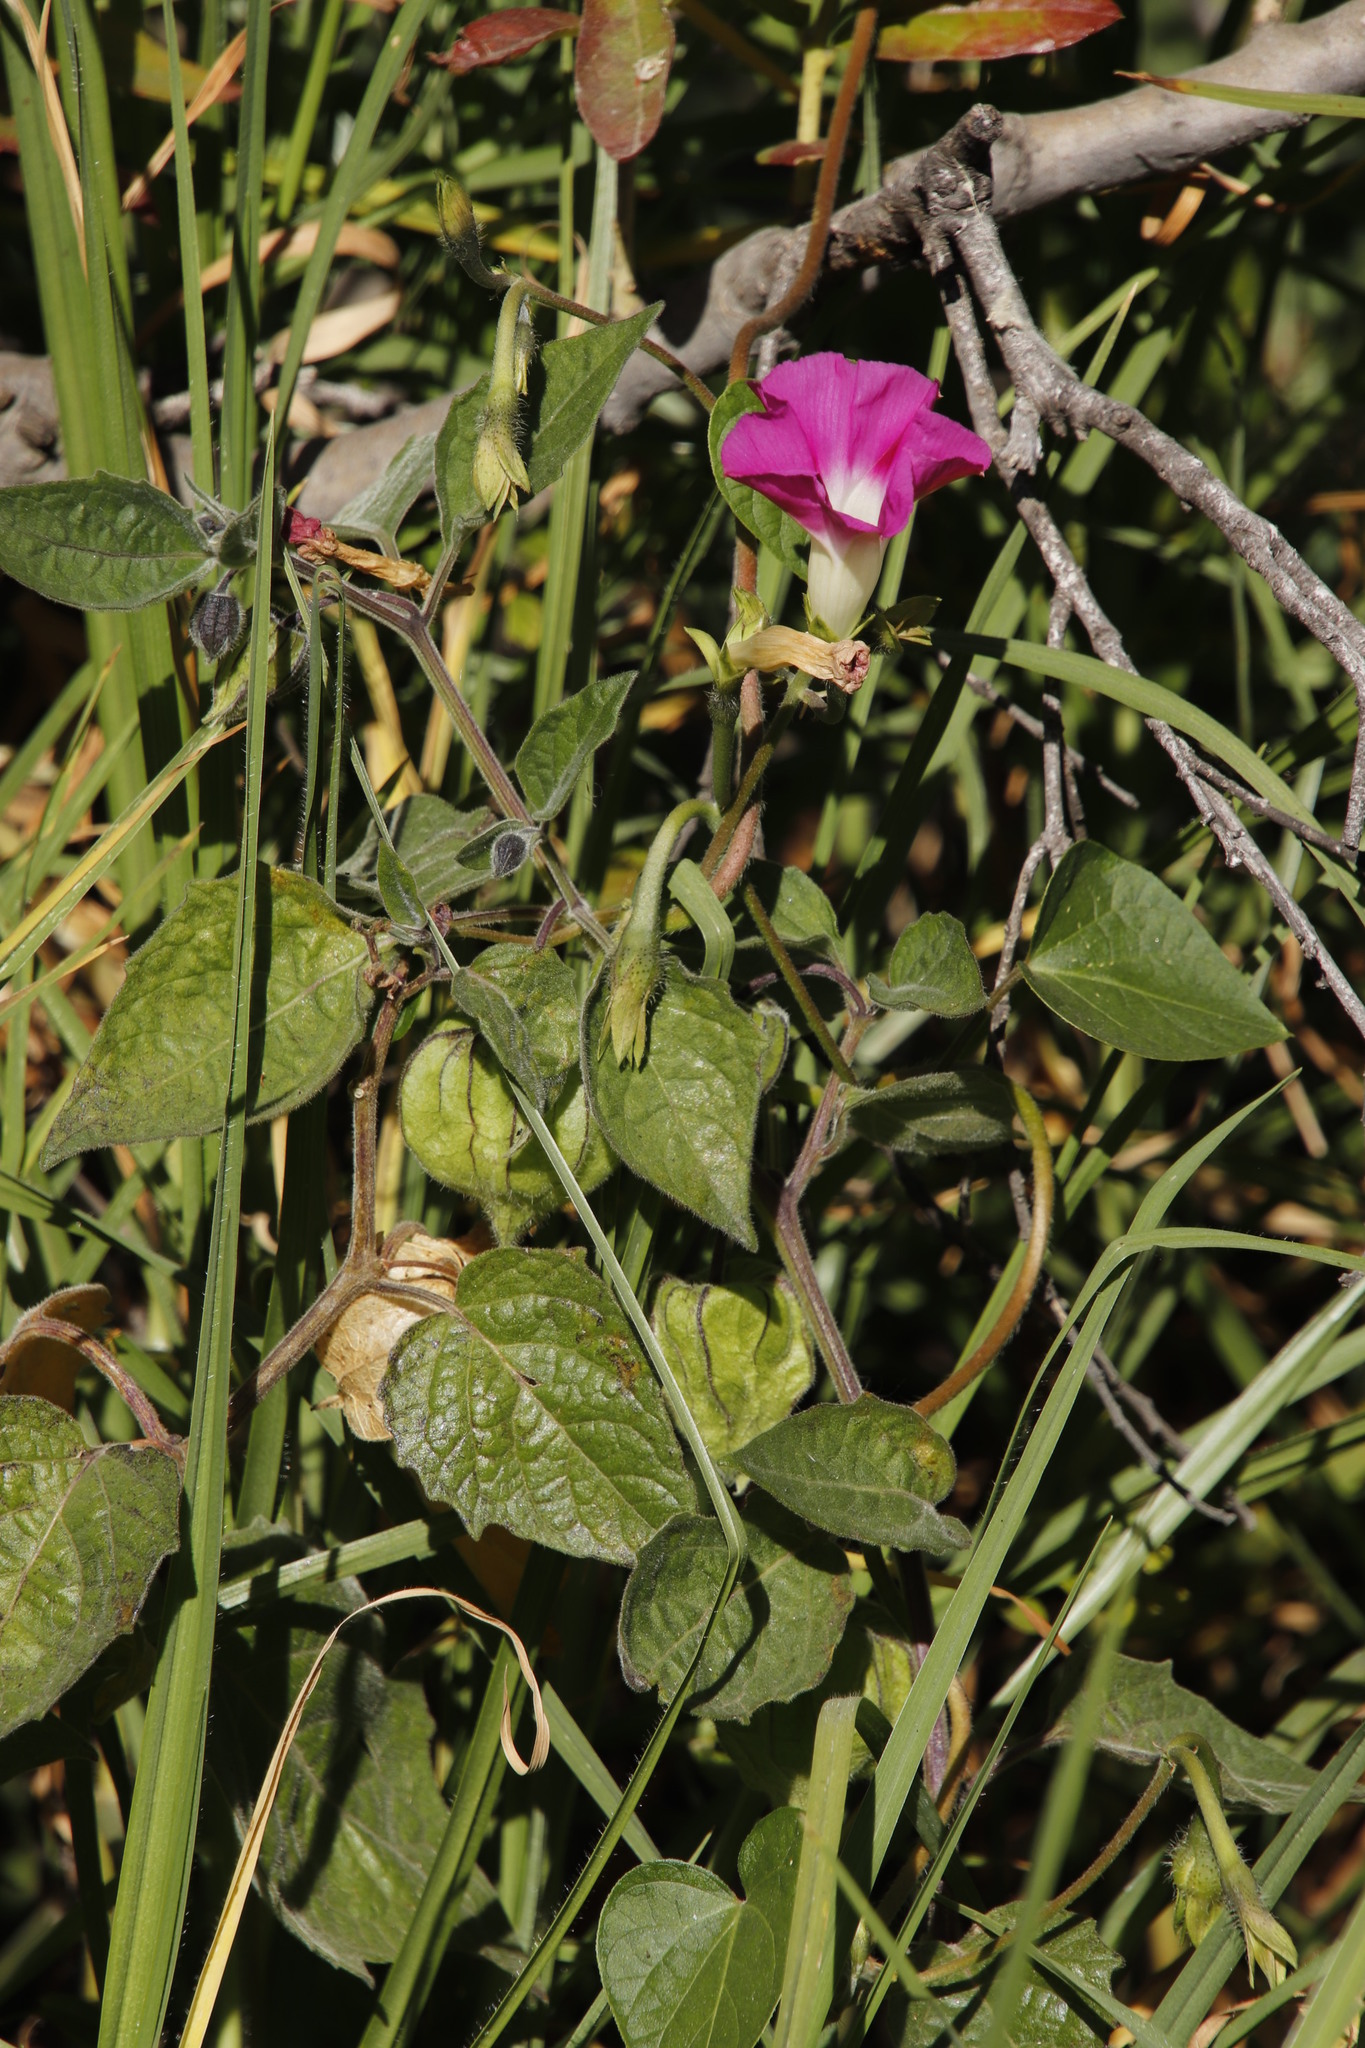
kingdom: Plantae
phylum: Tracheophyta
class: Magnoliopsida
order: Solanales
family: Convolvulaceae
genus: Ipomoea
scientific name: Ipomoea purpurea
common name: Common morning-glory
